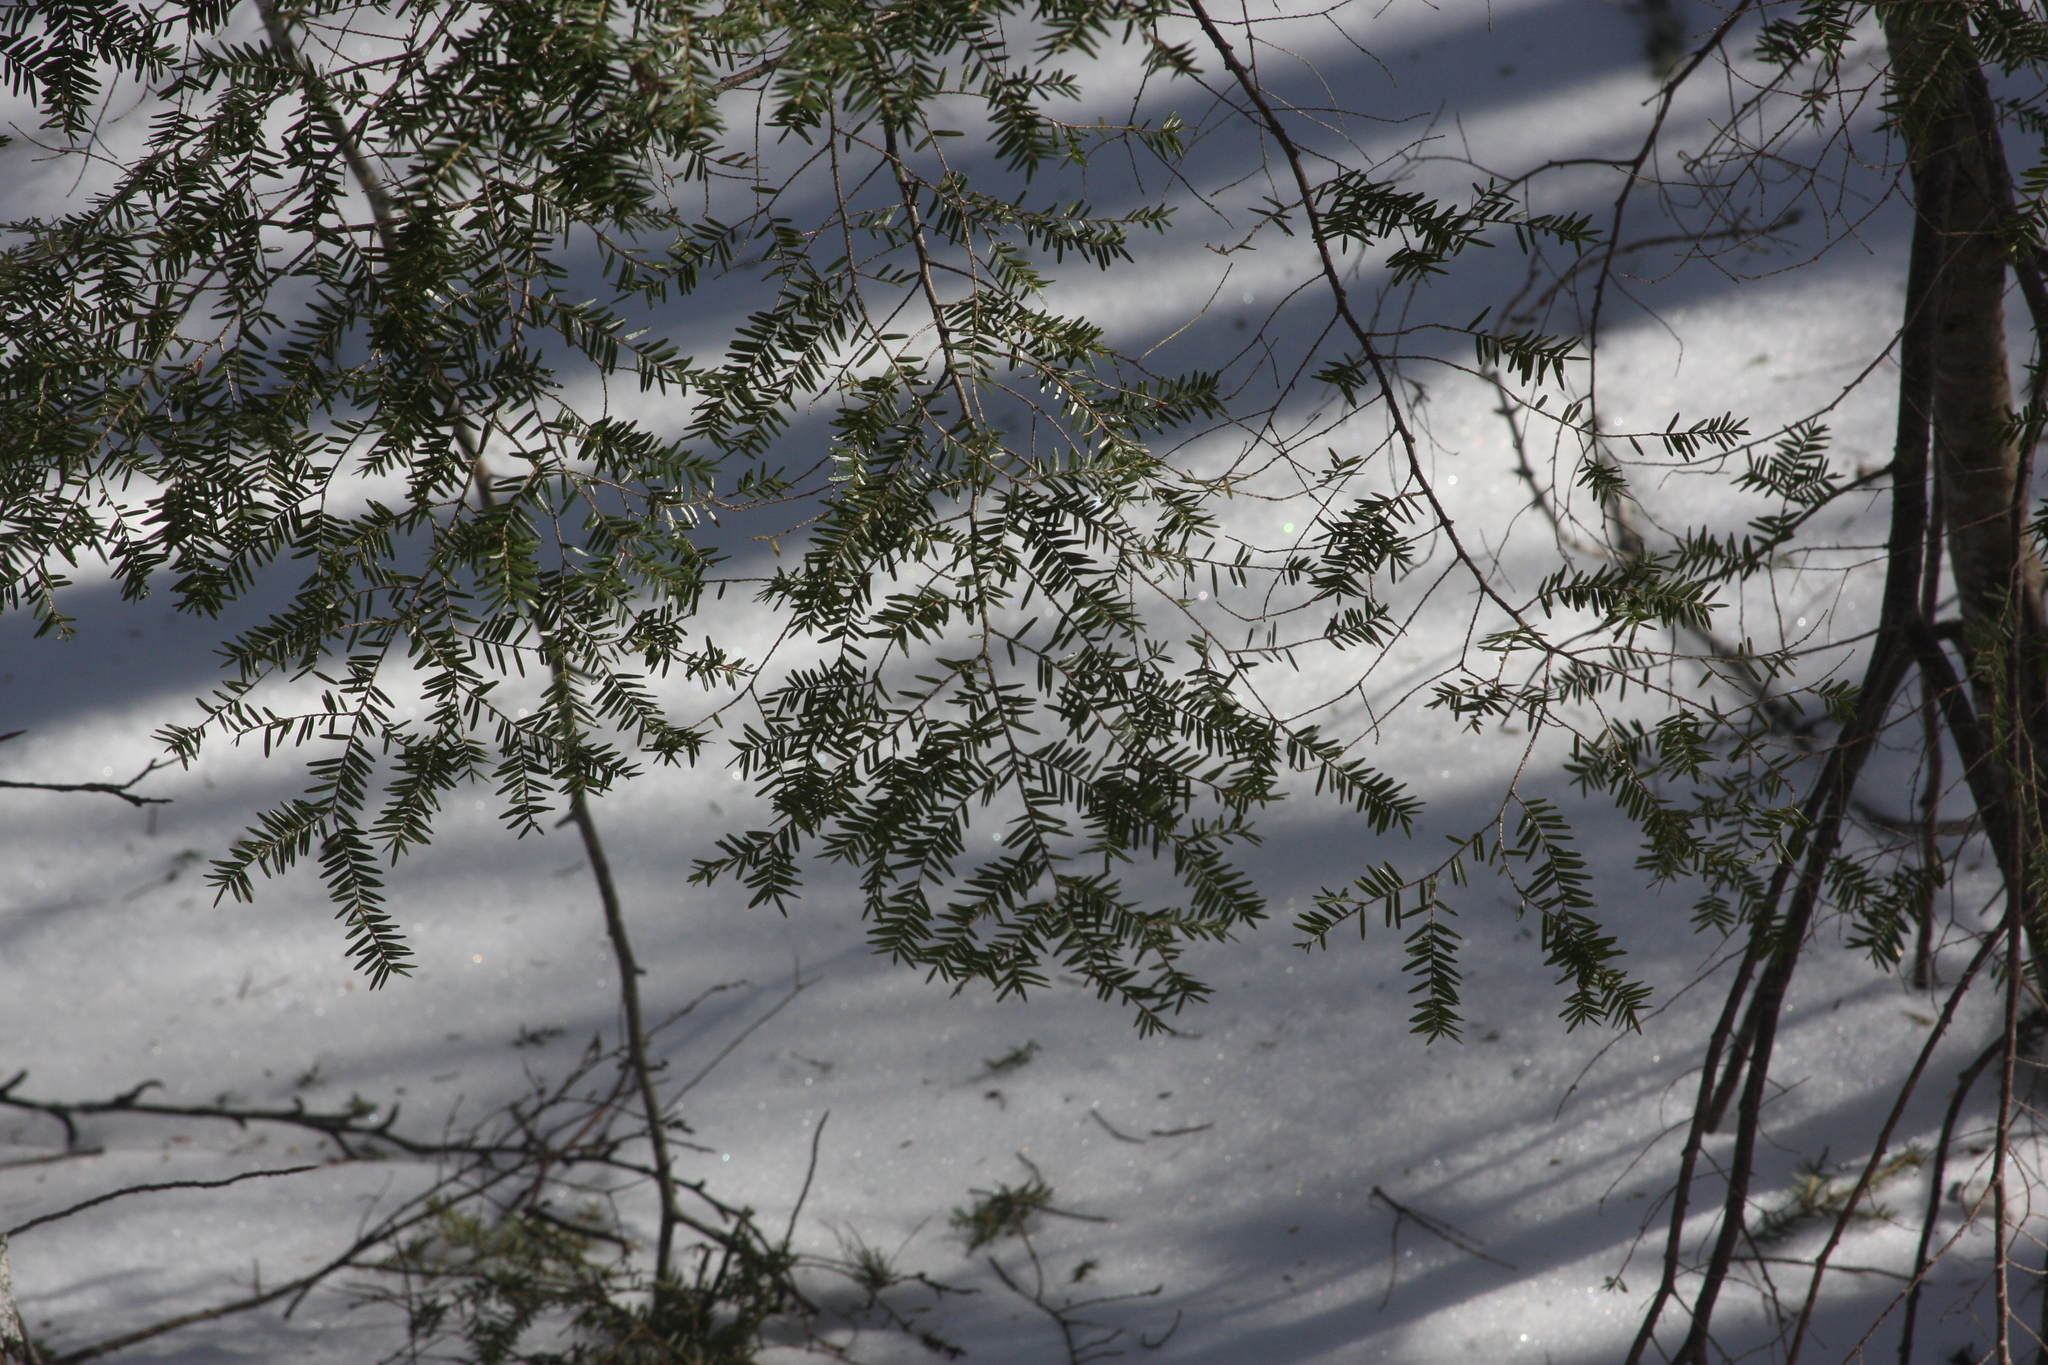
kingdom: Plantae
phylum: Tracheophyta
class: Pinopsida
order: Pinales
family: Pinaceae
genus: Tsuga
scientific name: Tsuga canadensis
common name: Eastern hemlock
